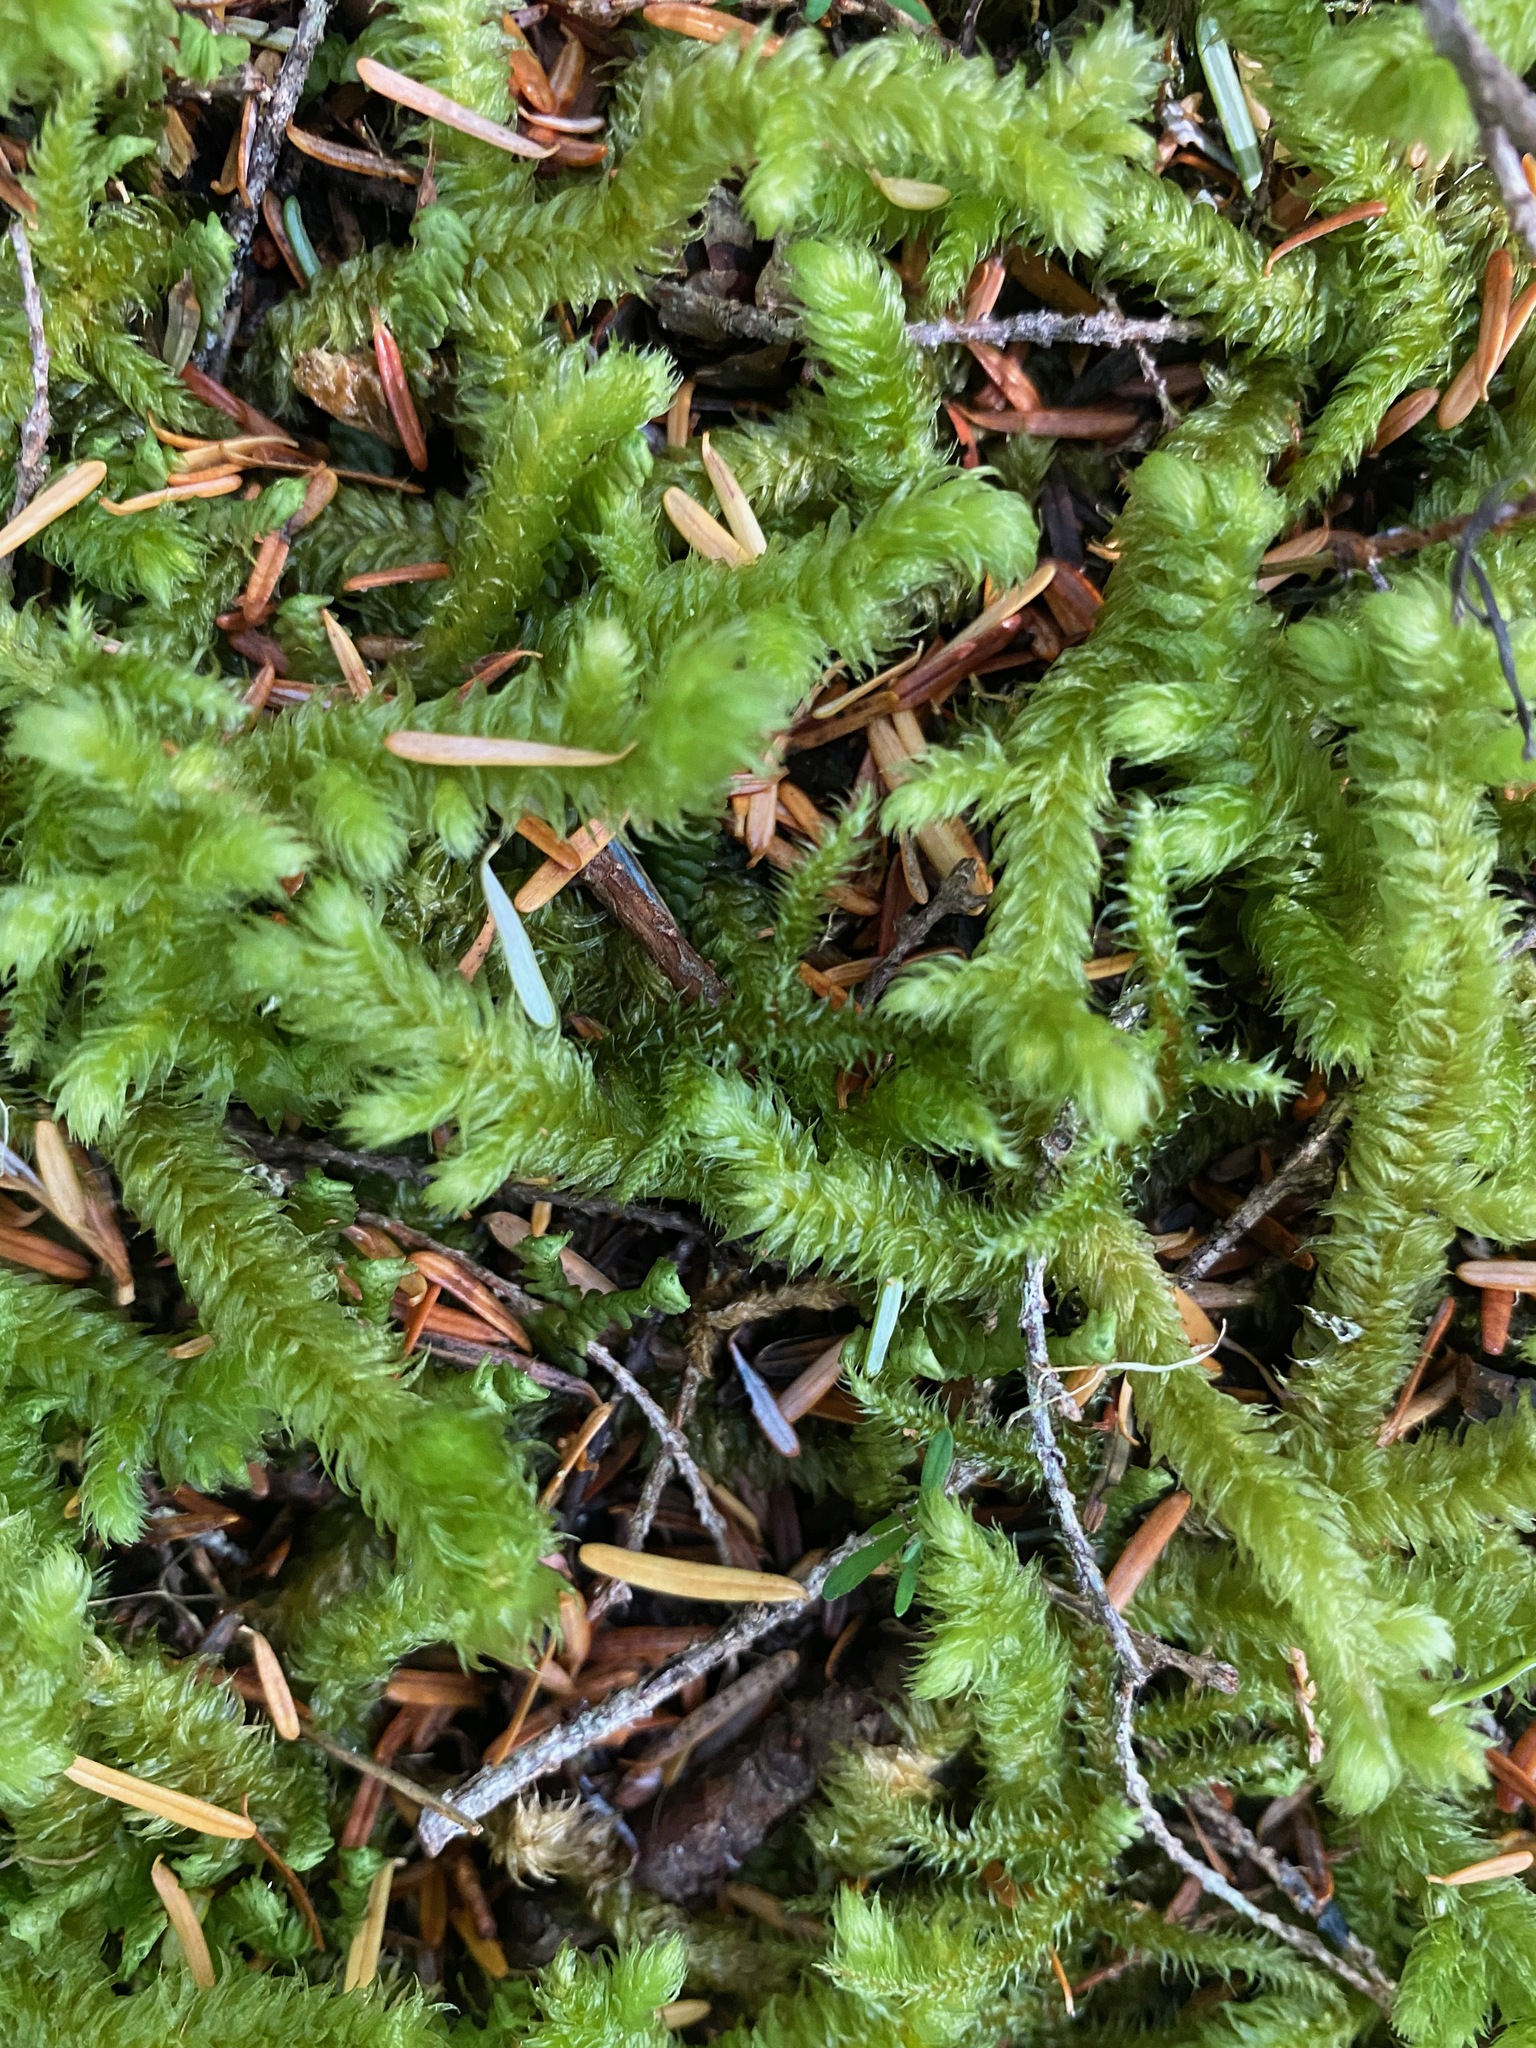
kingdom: Plantae
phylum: Bryophyta
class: Bryopsida
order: Hypnales
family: Hylocomiaceae
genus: Rhytidiopsis
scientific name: Rhytidiopsis robusta
